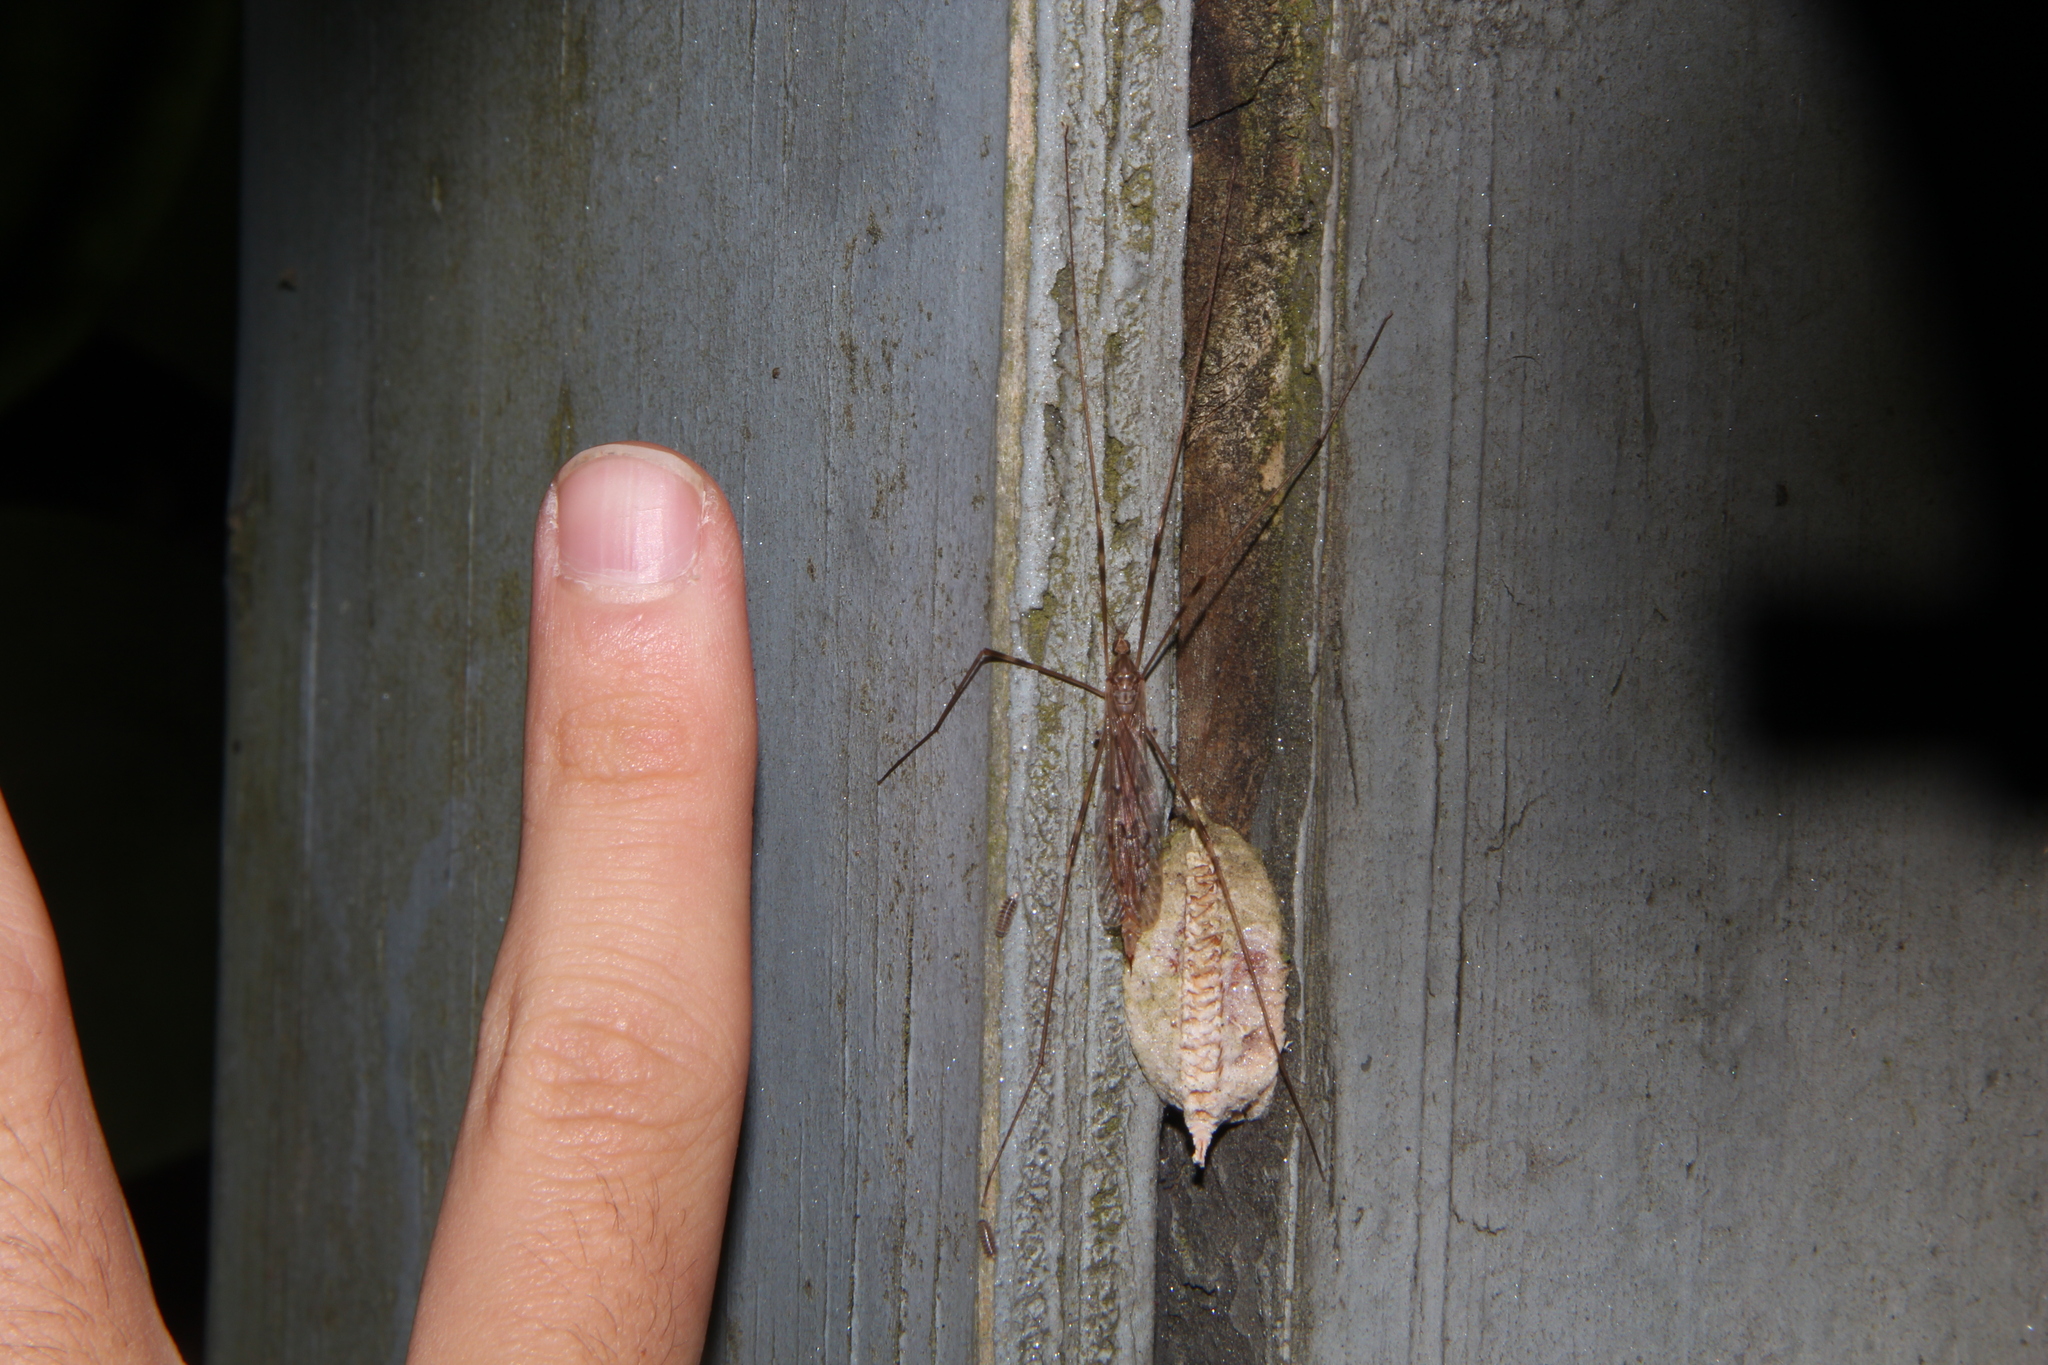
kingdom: Animalia
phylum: Arthropoda
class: Insecta
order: Diptera
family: Limoniidae
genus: Austrolimnophila
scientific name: Austrolimnophila
